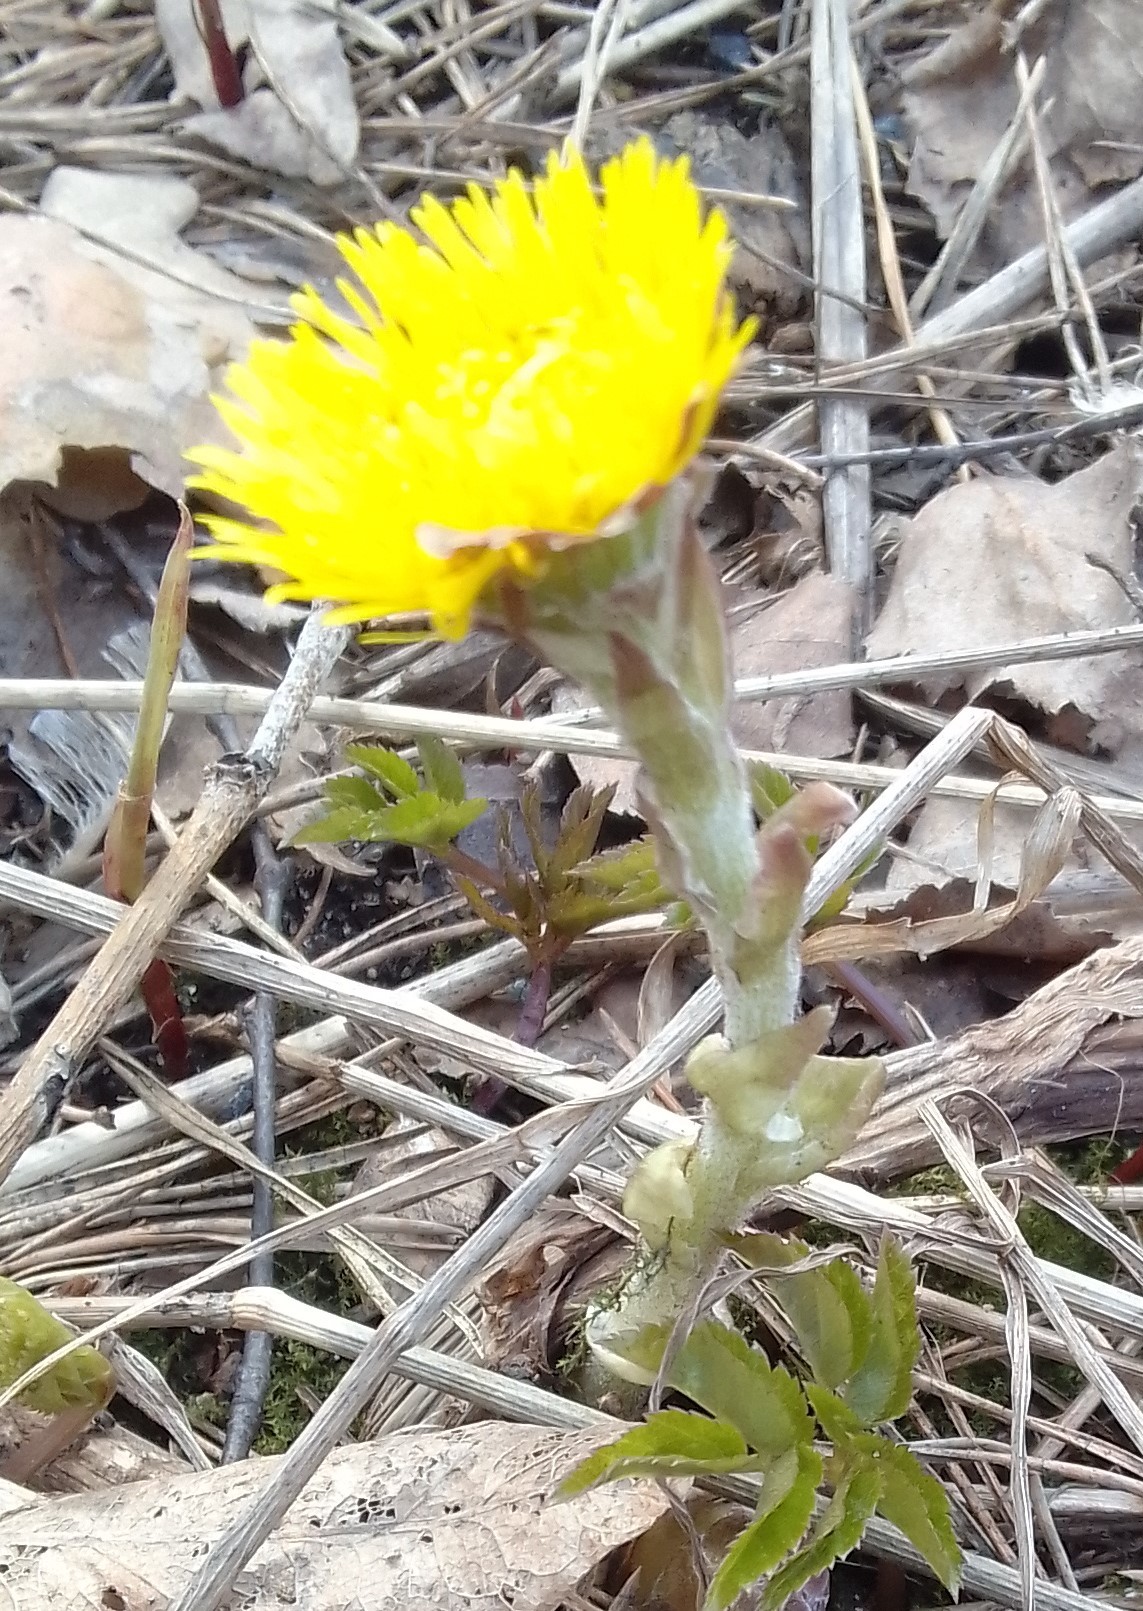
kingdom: Plantae
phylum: Tracheophyta
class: Magnoliopsida
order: Asterales
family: Asteraceae
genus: Tussilago
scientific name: Tussilago farfara
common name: Coltsfoot
